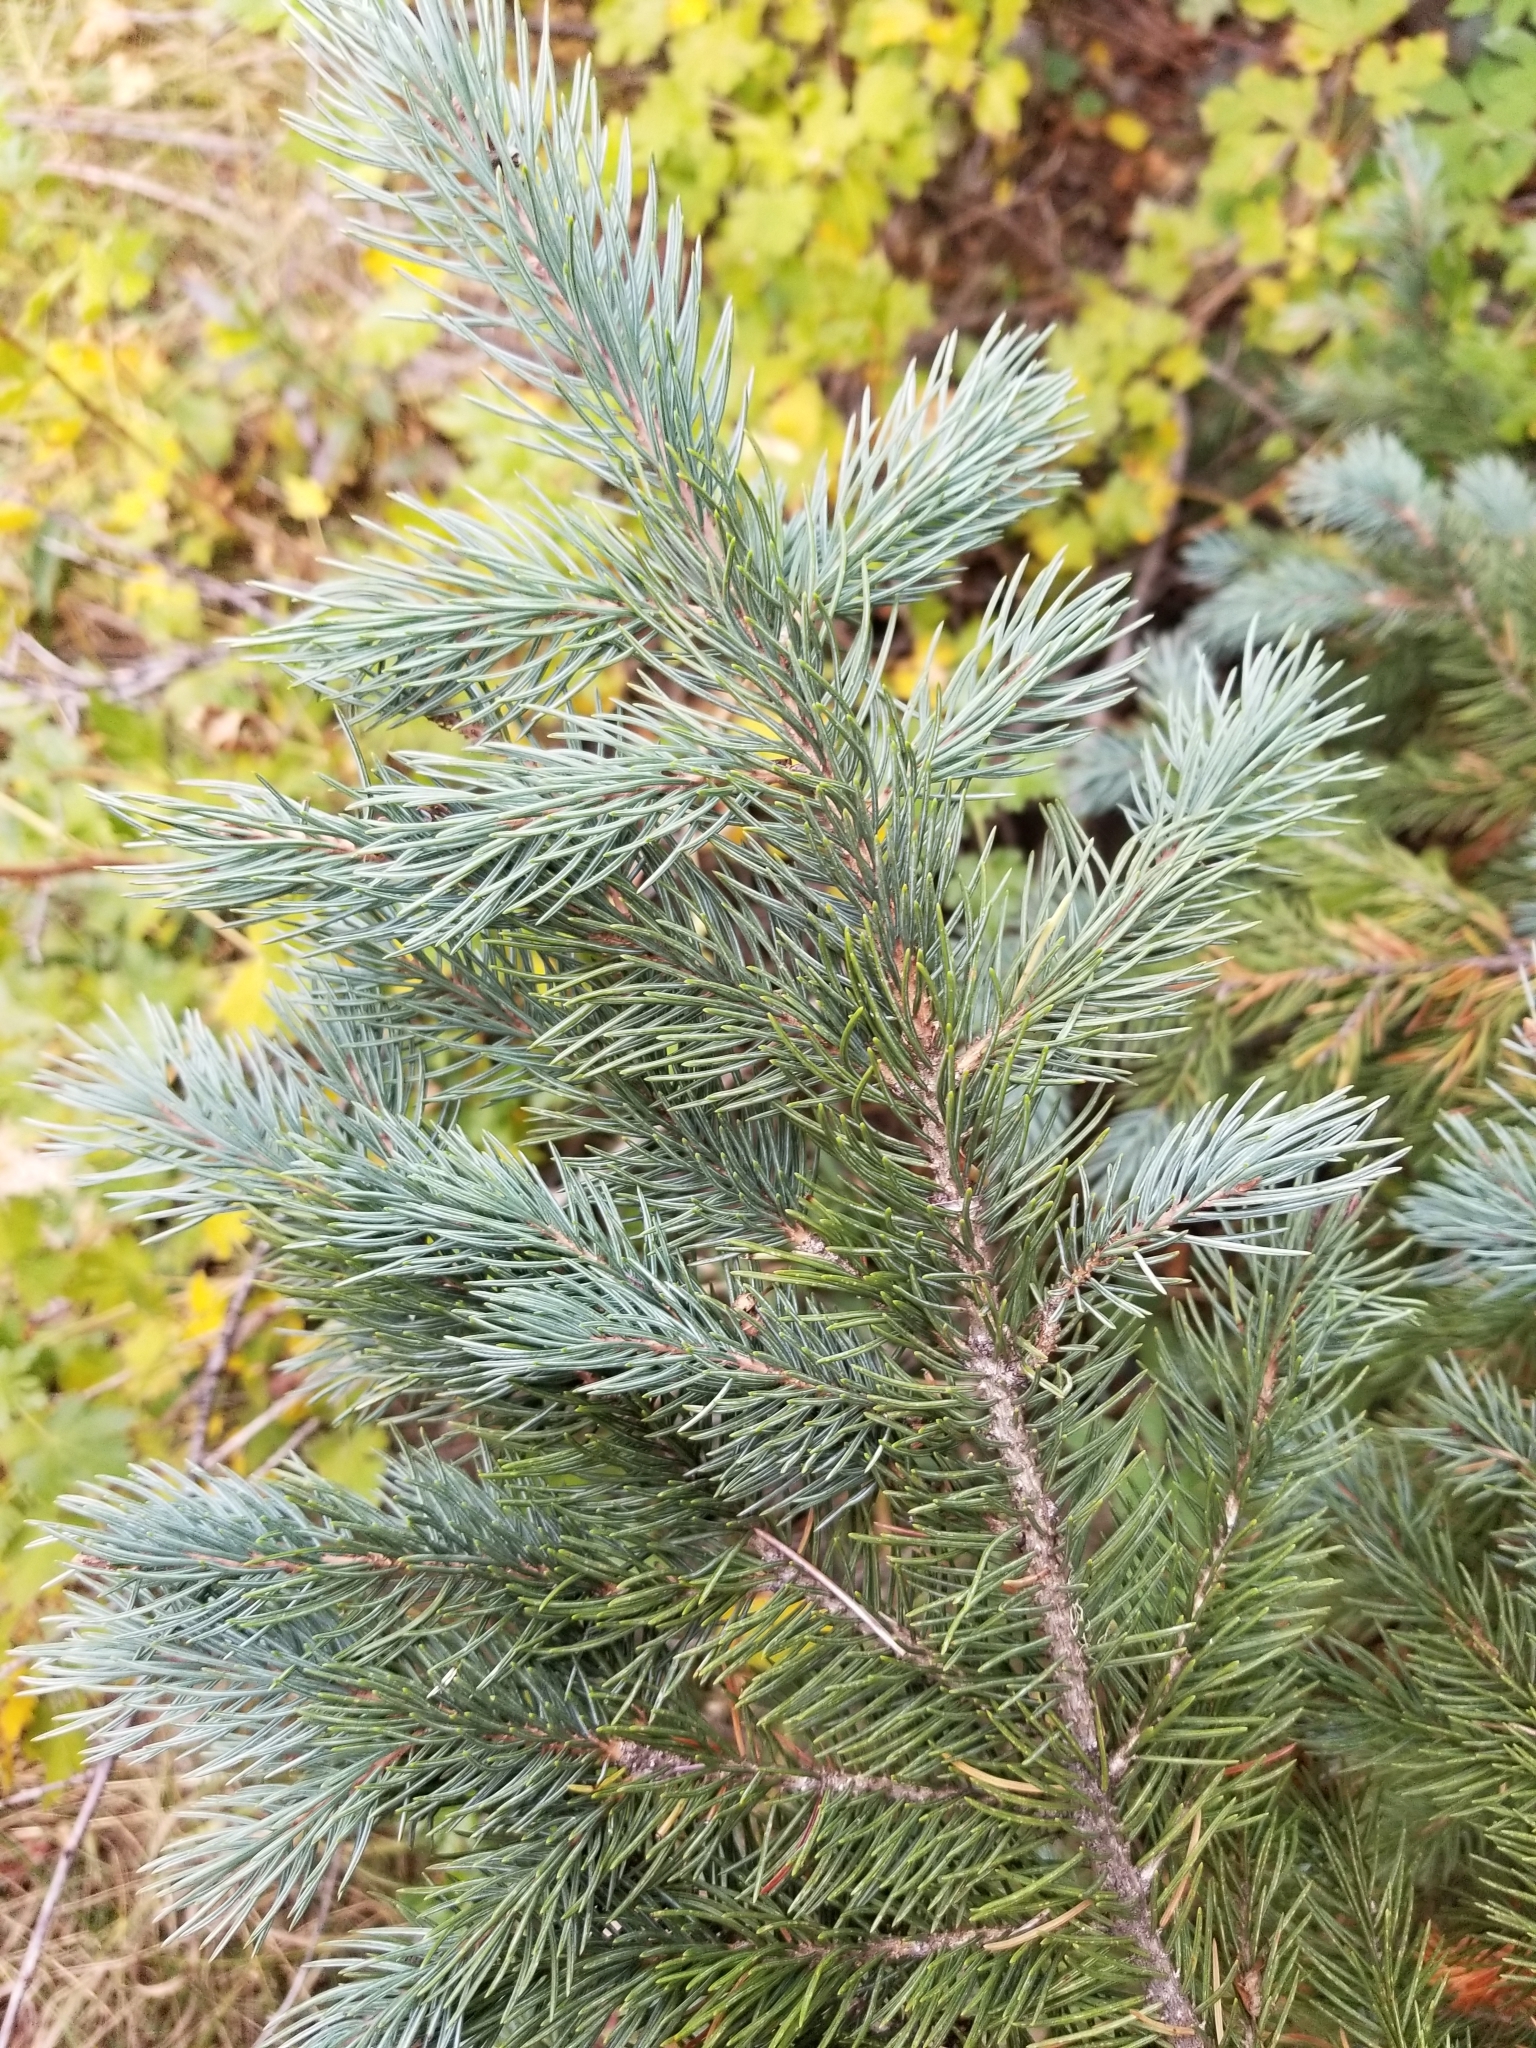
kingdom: Plantae
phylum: Tracheophyta
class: Pinopsida
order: Pinales
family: Pinaceae
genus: Picea
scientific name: Picea engelmannii
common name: Engelmann spruce
